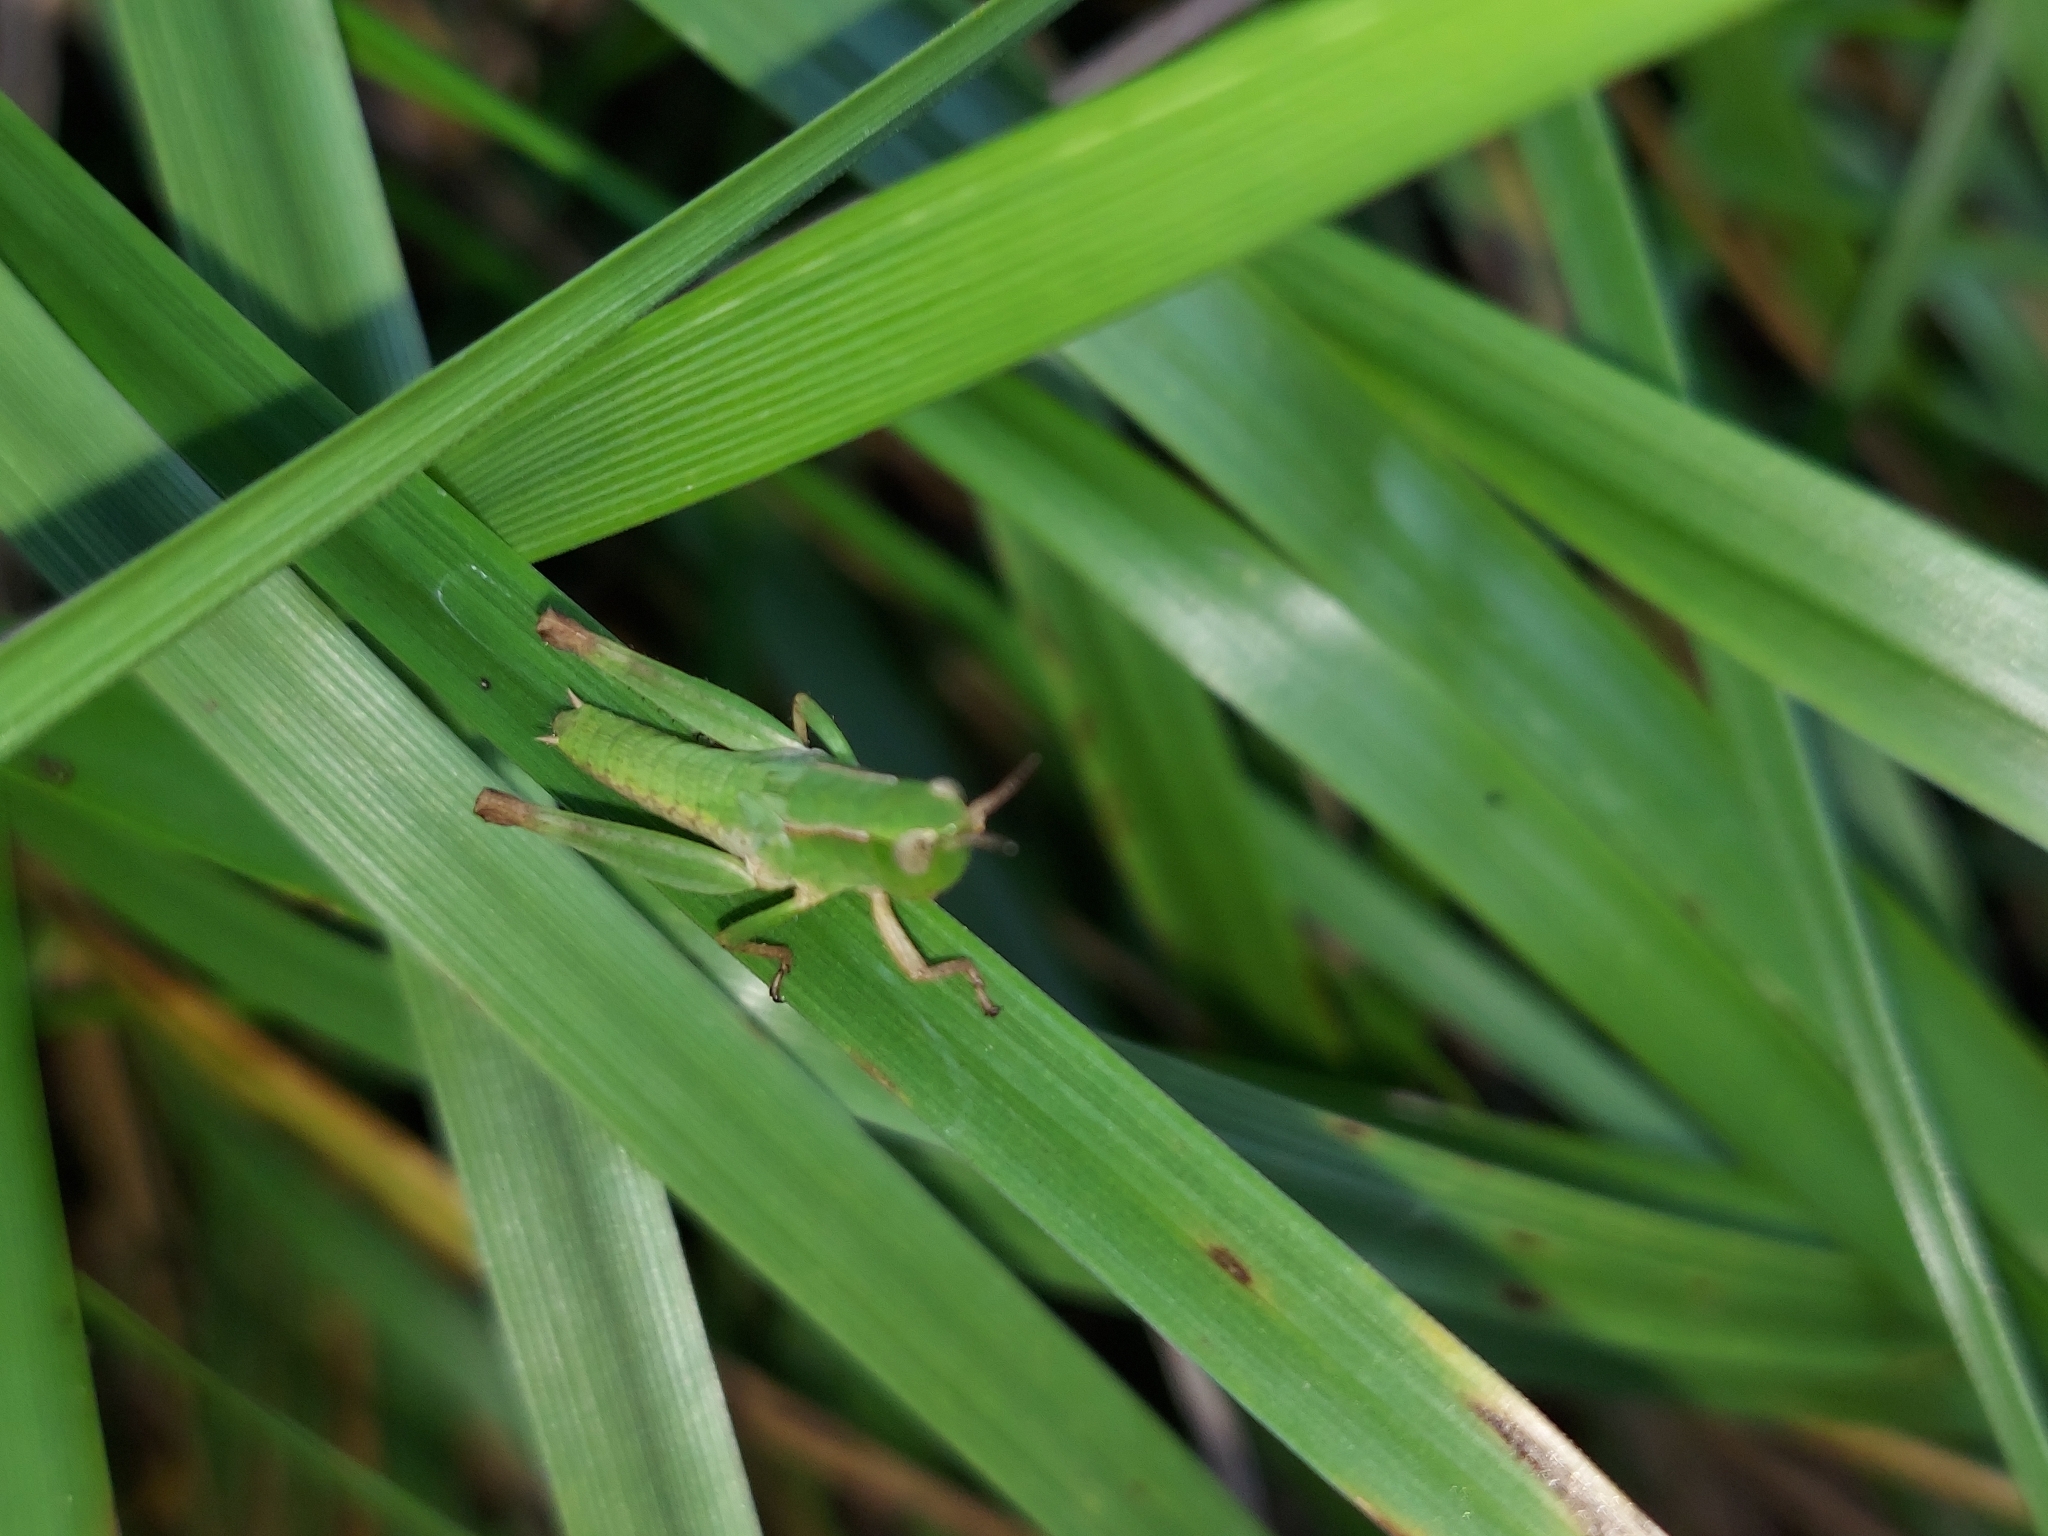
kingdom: Animalia
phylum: Arthropoda
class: Insecta
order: Orthoptera
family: Acrididae
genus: Dichromorpha
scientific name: Dichromorpha viridis
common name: Short-winged green grasshopper
